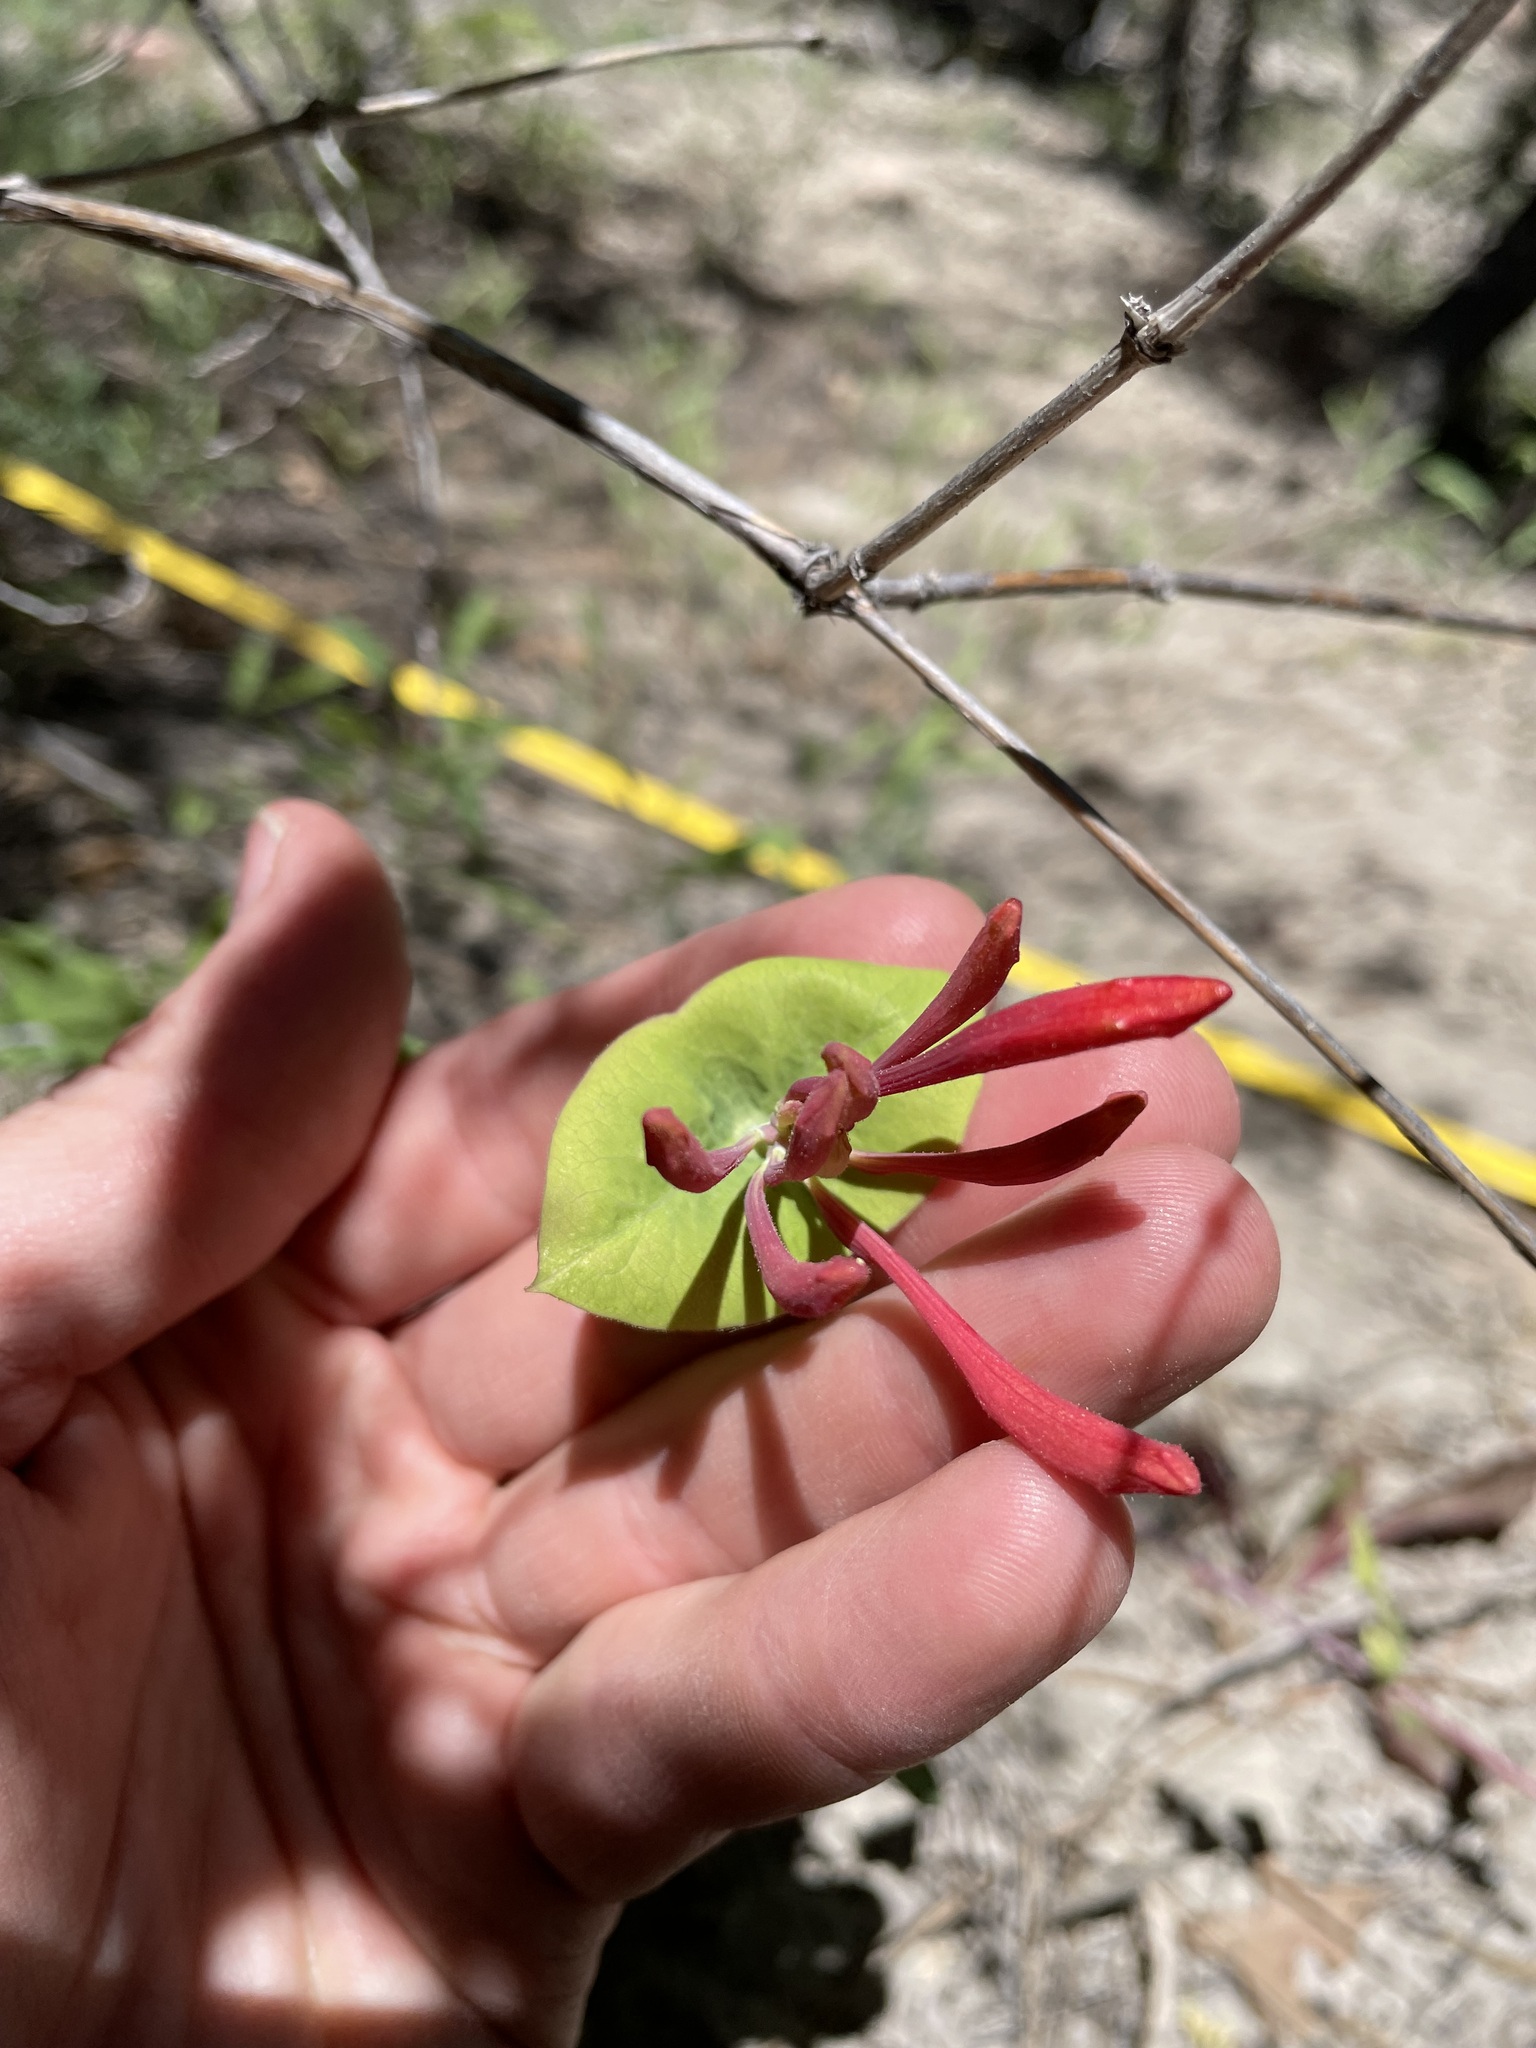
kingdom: Plantae
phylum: Tracheophyta
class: Magnoliopsida
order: Dipsacales
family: Caprifoliaceae
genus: Lonicera
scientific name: Lonicera arizonica
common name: Arizona honeysuckle
